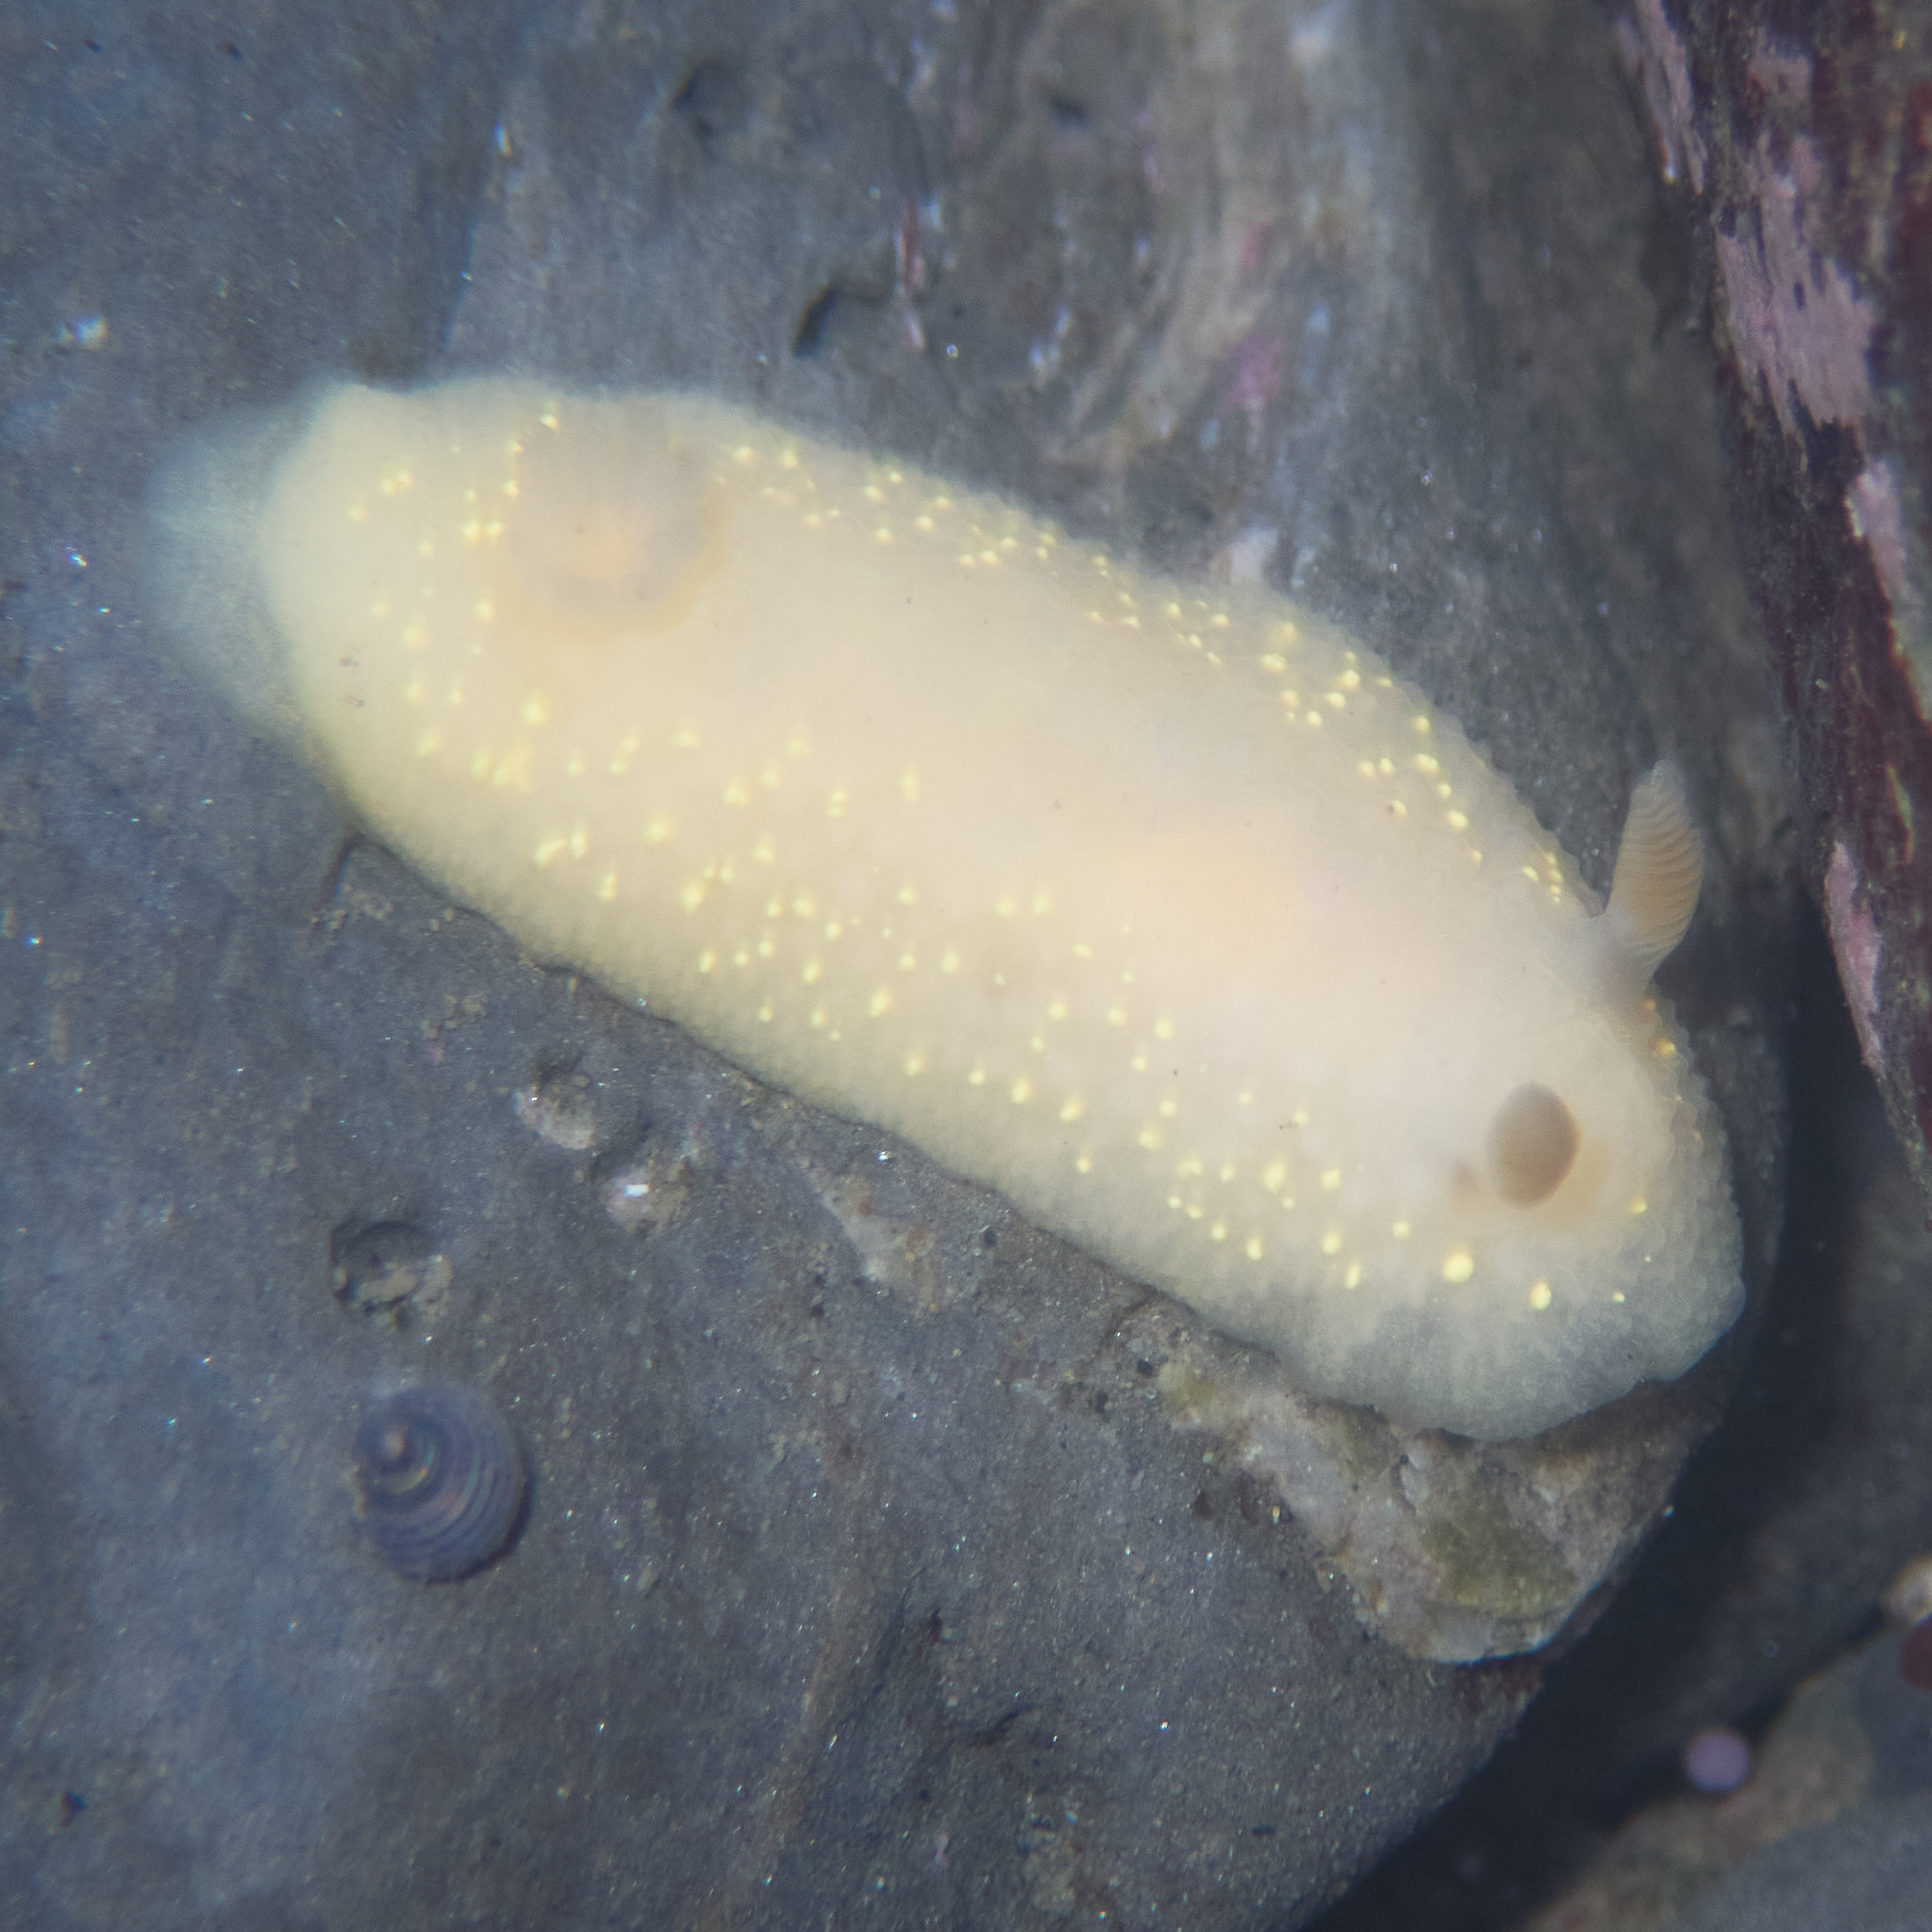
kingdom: Animalia
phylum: Mollusca
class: Gastropoda
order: Nudibranchia
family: Cadlinidae
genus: Cadlina
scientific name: Cadlina modesta
